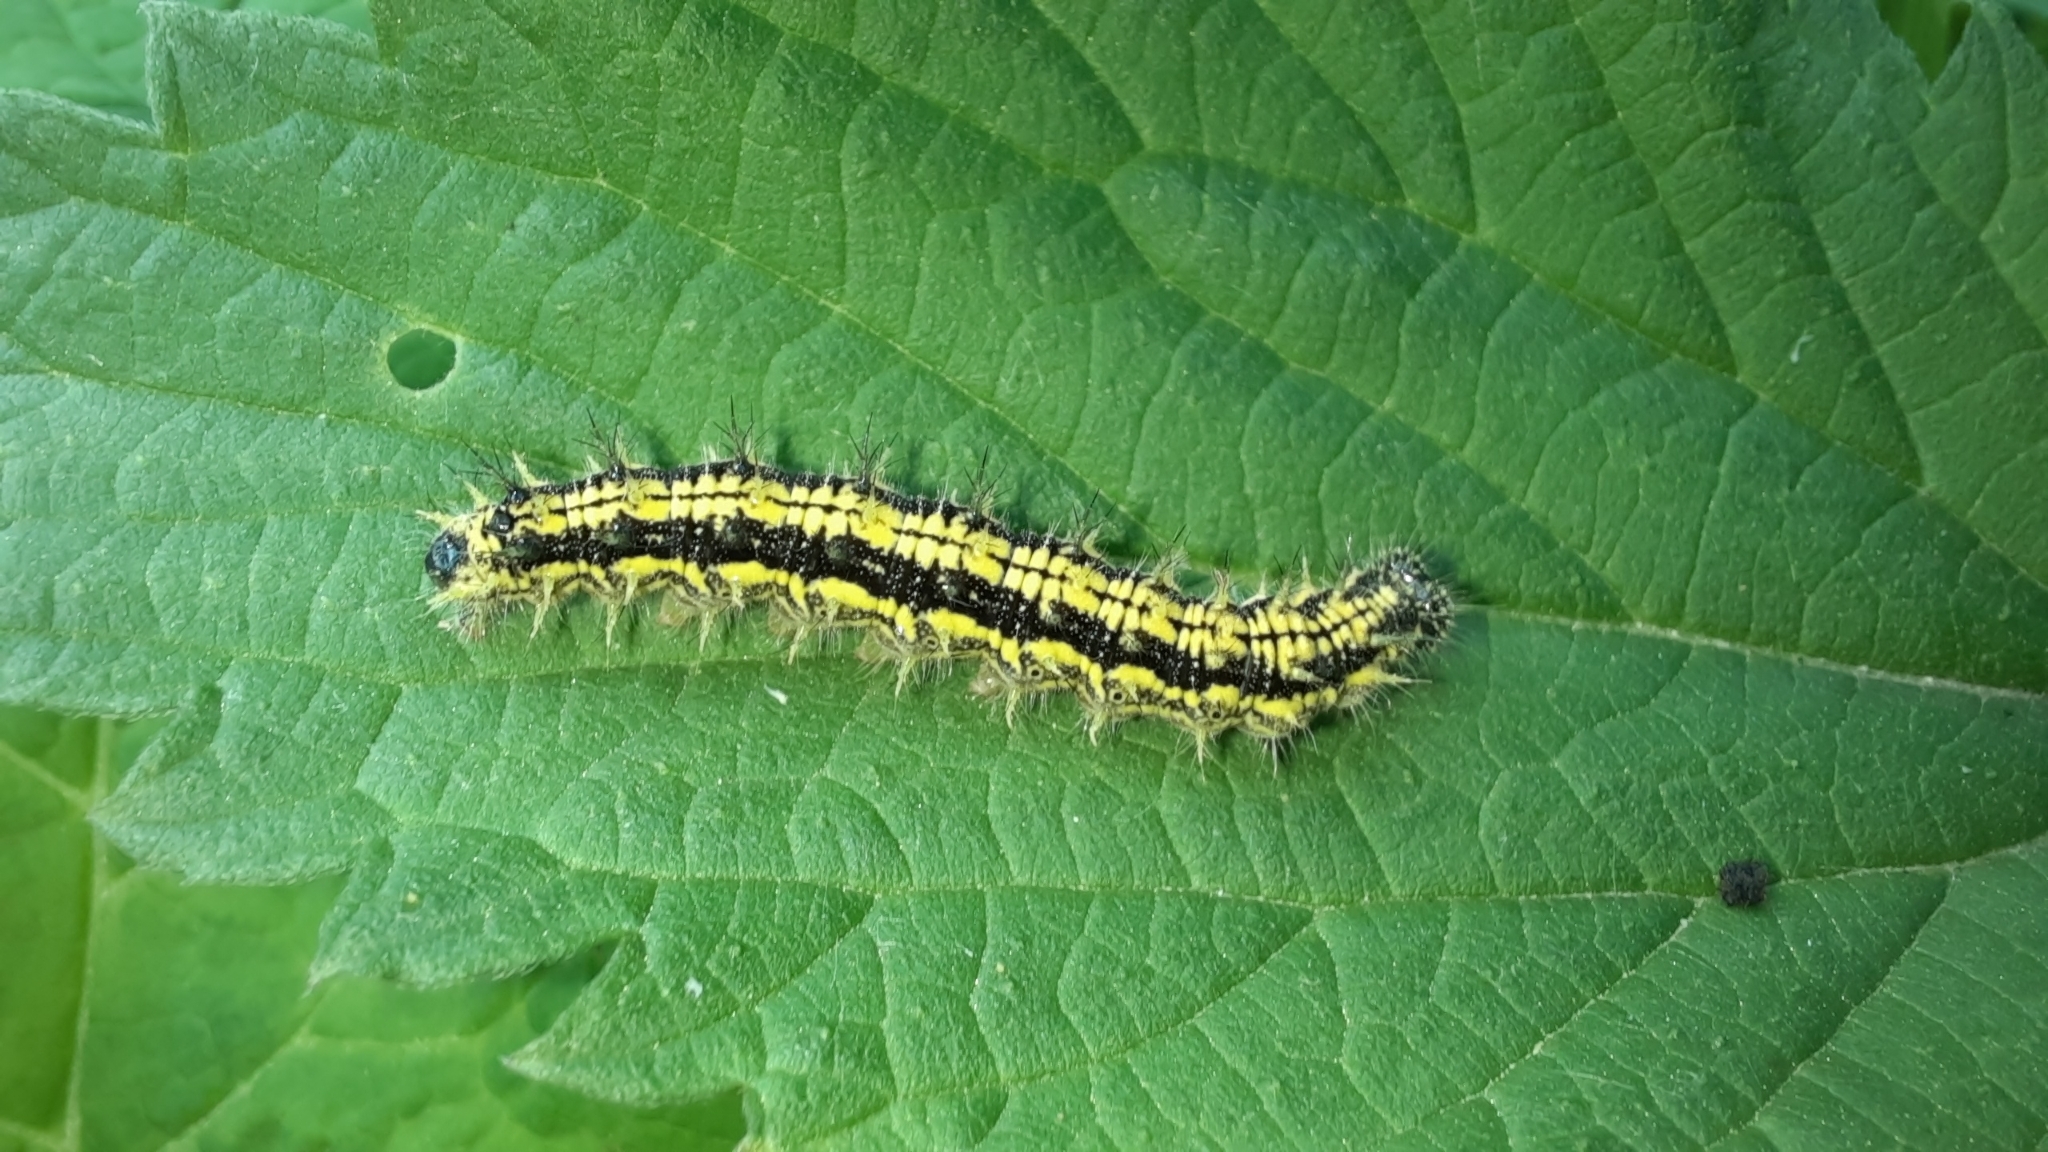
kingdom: Animalia
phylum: Arthropoda
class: Insecta
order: Lepidoptera
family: Nymphalidae
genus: Aglais
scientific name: Aglais urticae
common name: Small tortoiseshell
